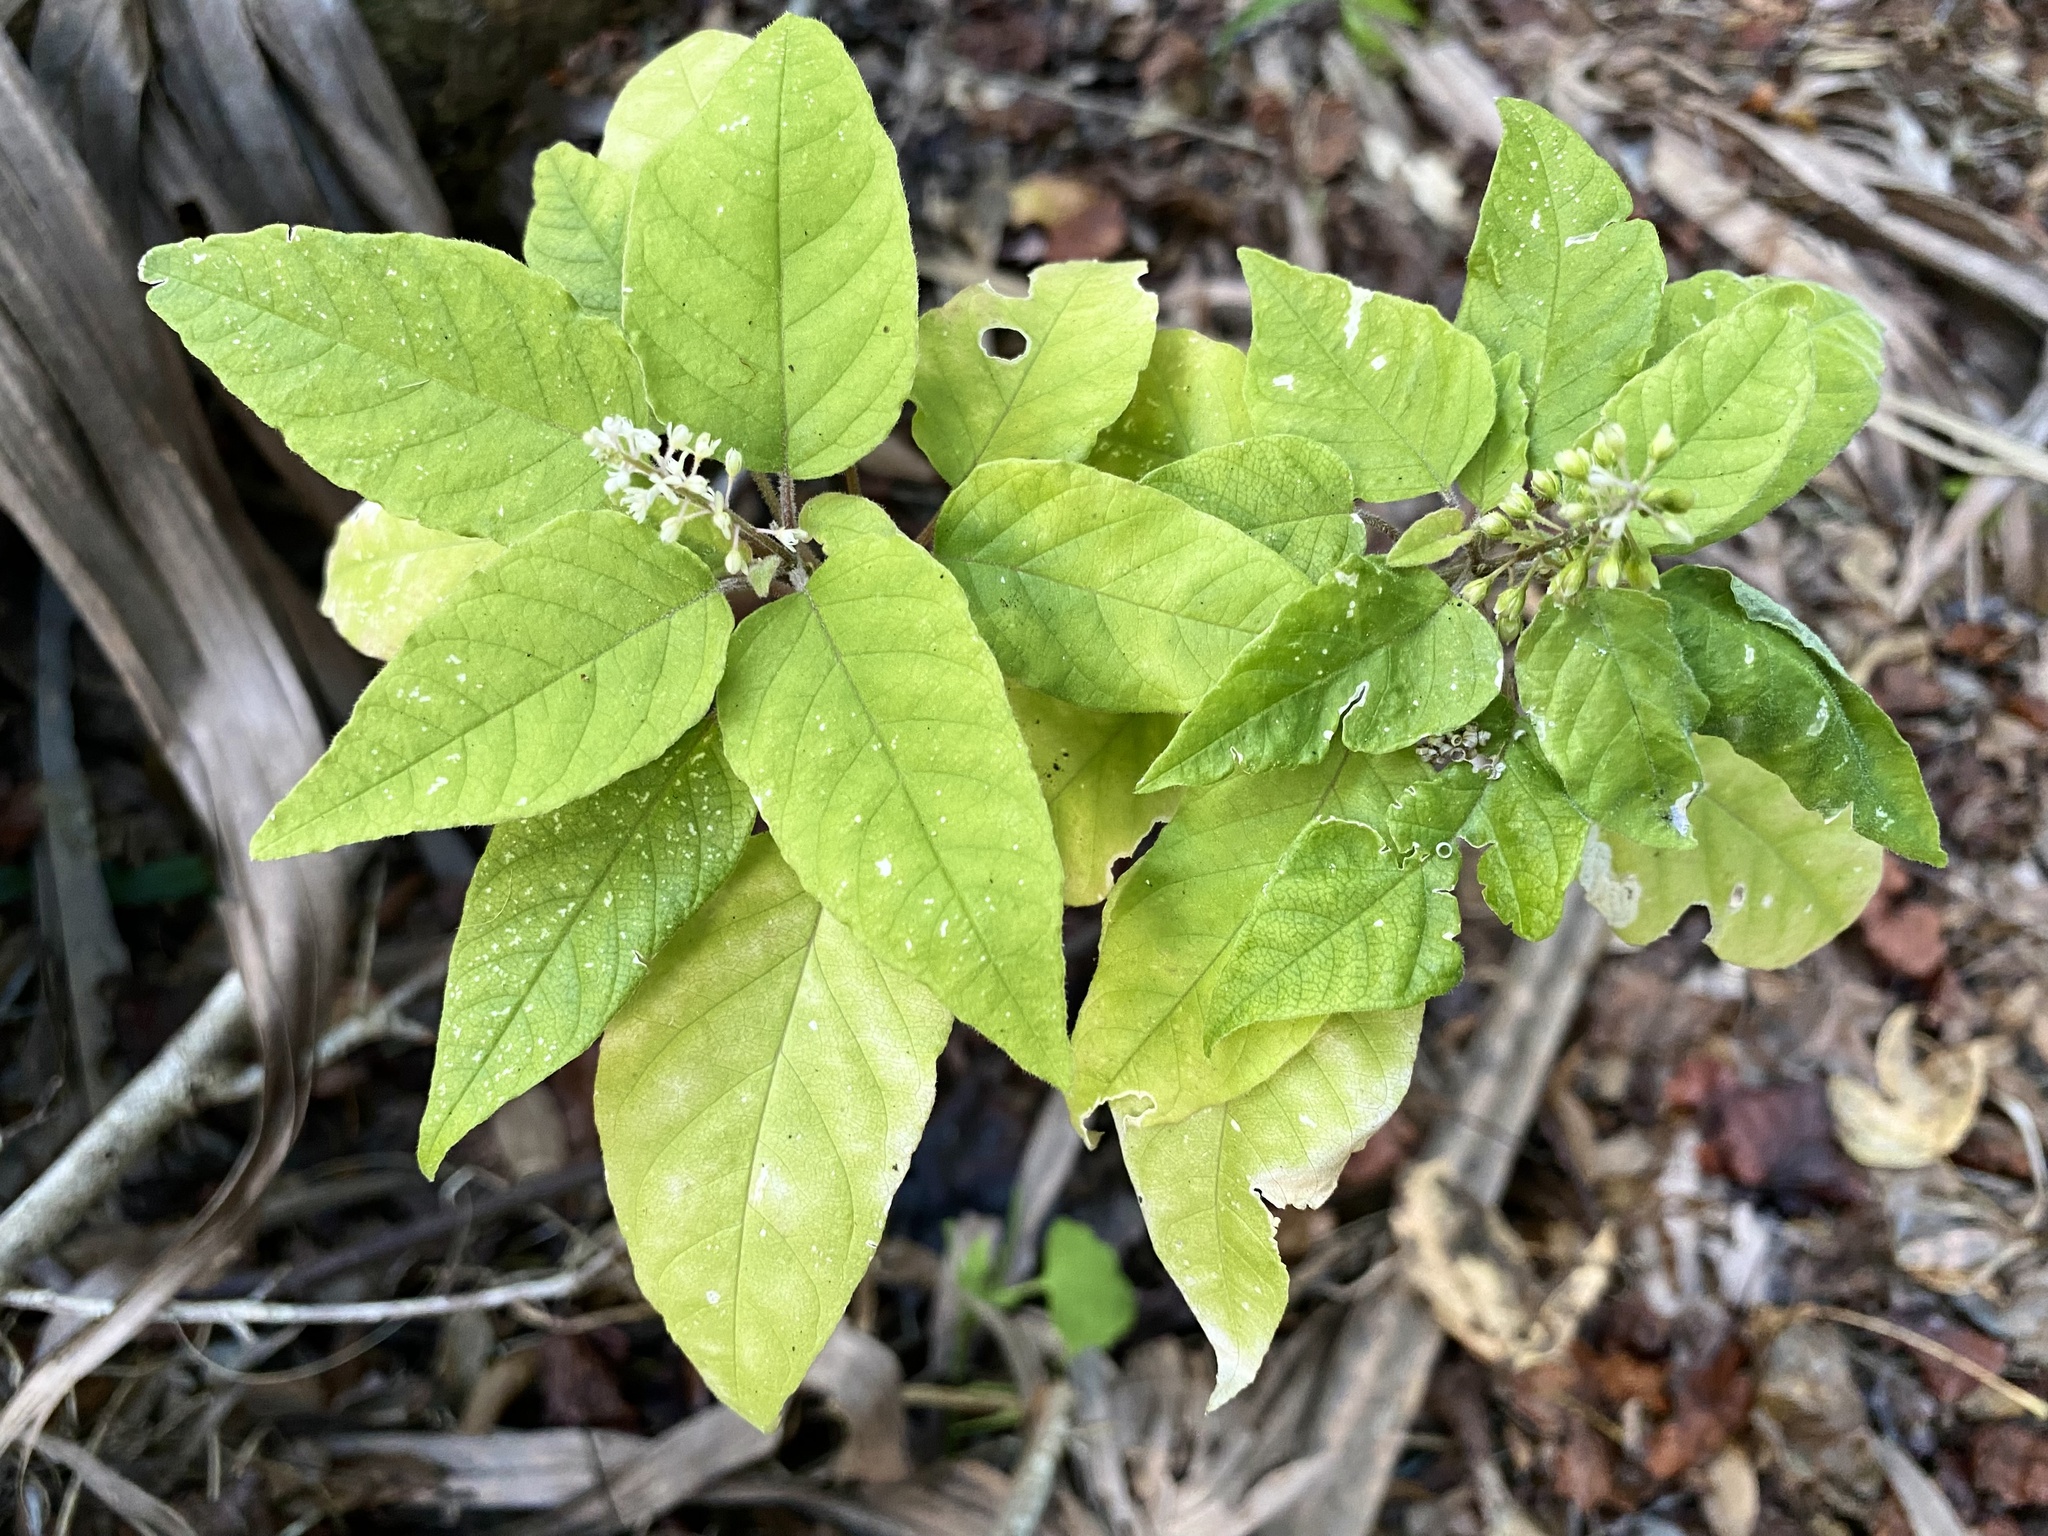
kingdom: Plantae
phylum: Tracheophyta
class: Magnoliopsida
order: Caryophyllales
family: Phytolaccaceae
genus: Rivina
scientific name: Rivina humilis
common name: Rougeplant
